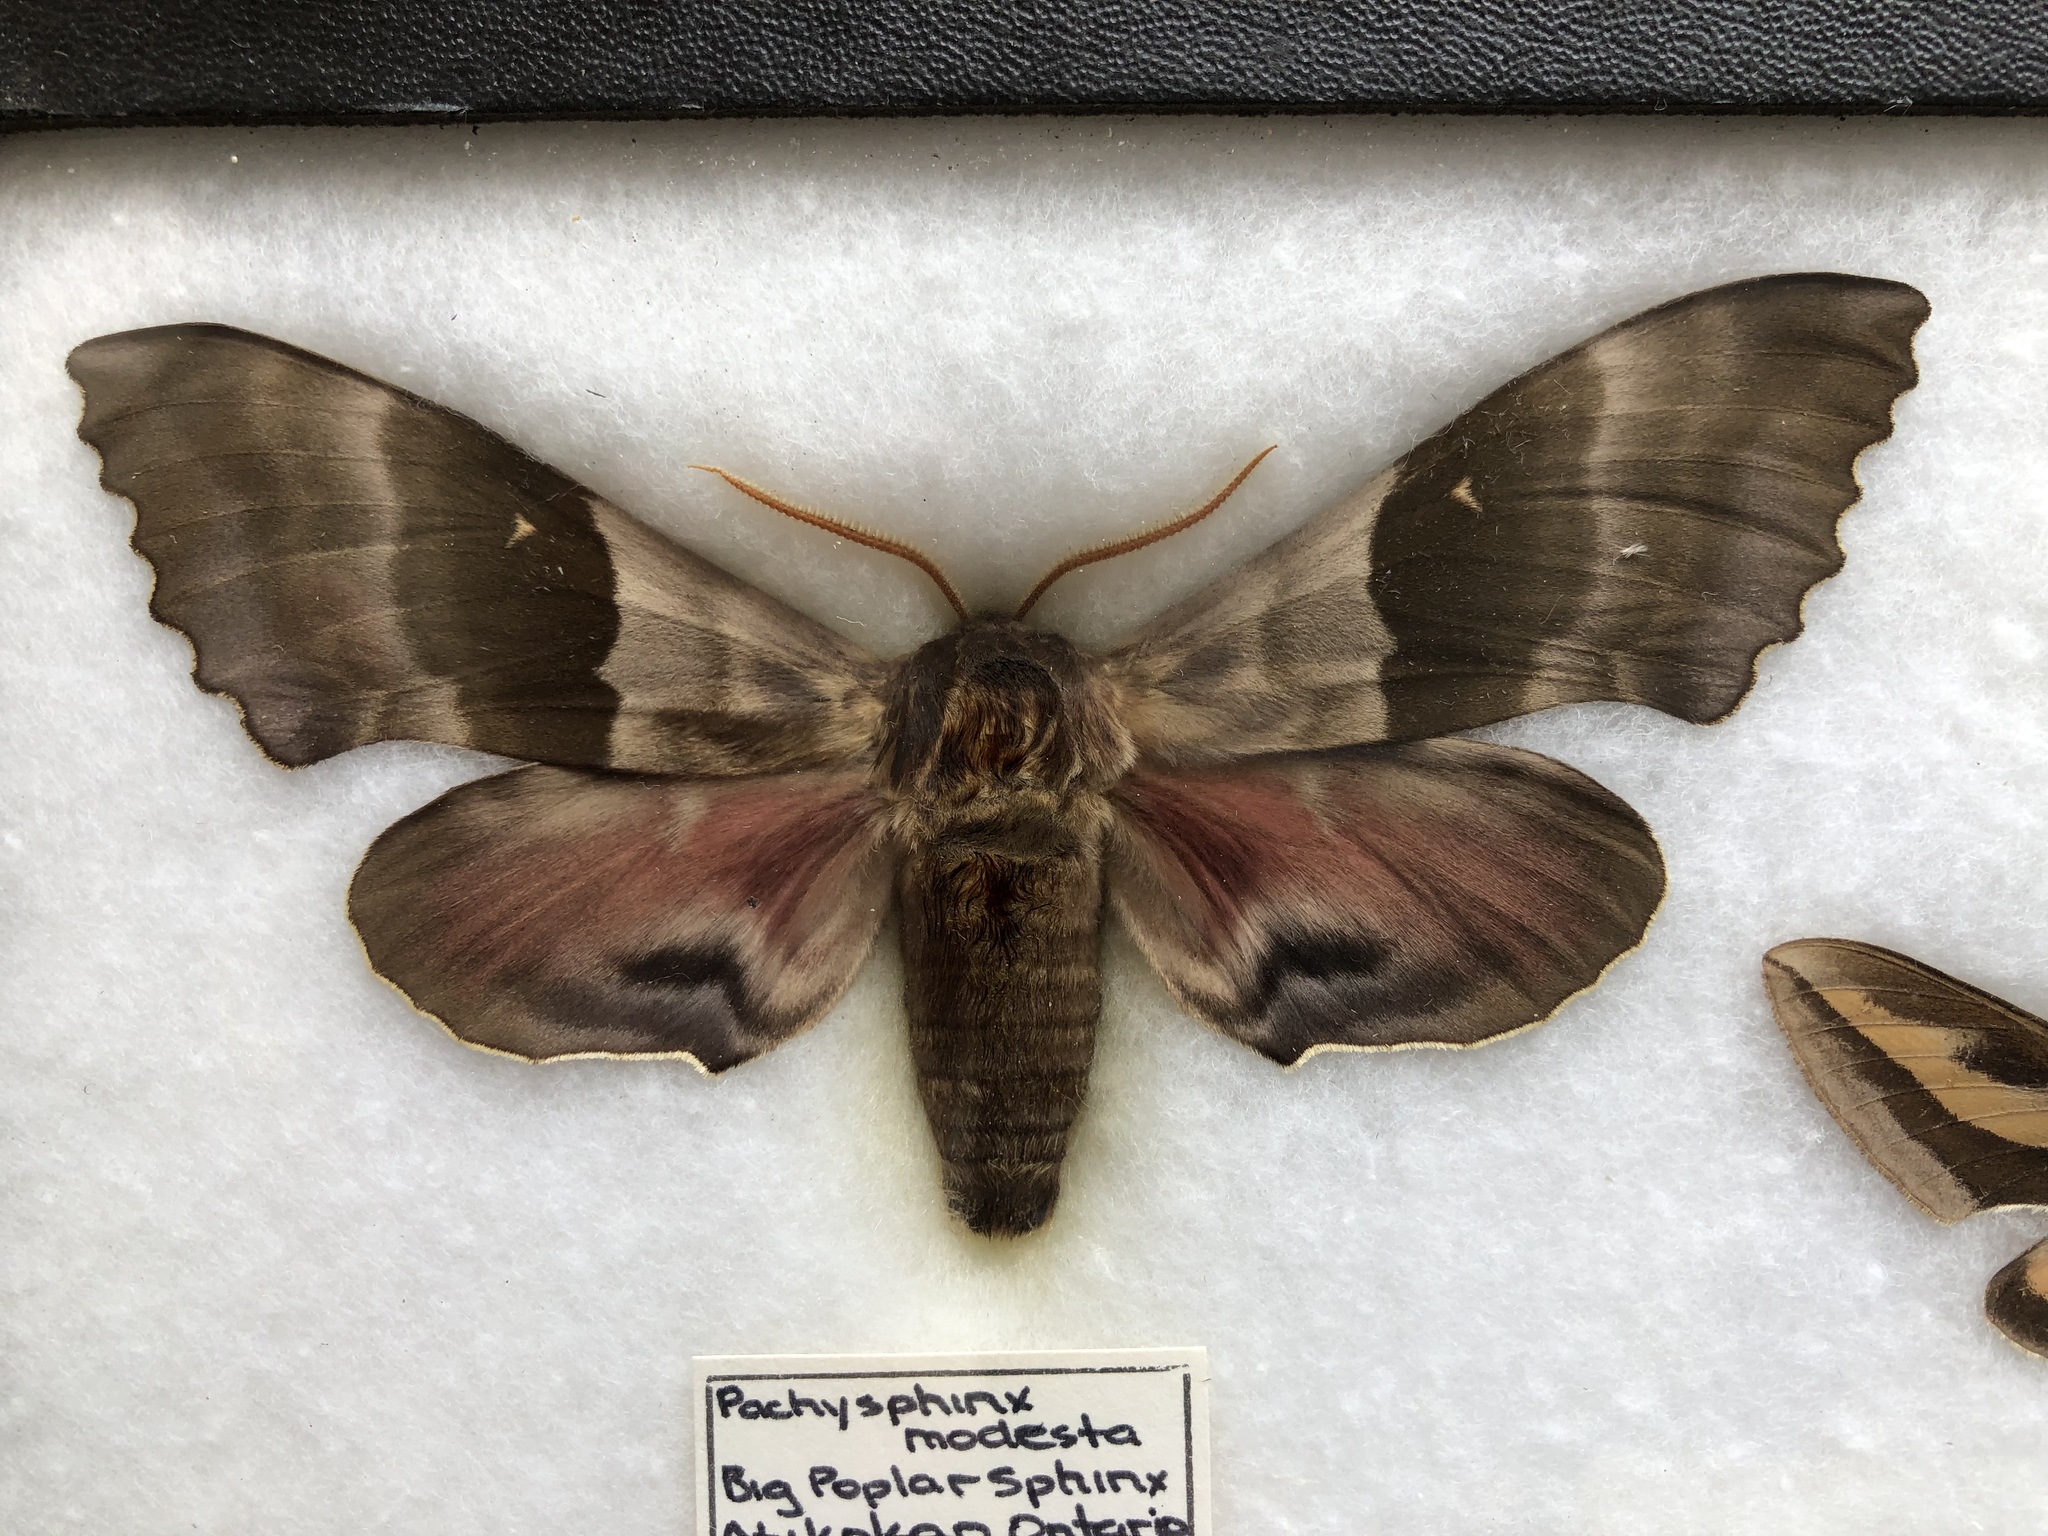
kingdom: Animalia
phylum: Arthropoda
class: Insecta
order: Lepidoptera
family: Sphingidae
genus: Pachysphinx
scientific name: Pachysphinx modesta
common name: Big poplar sphinx
